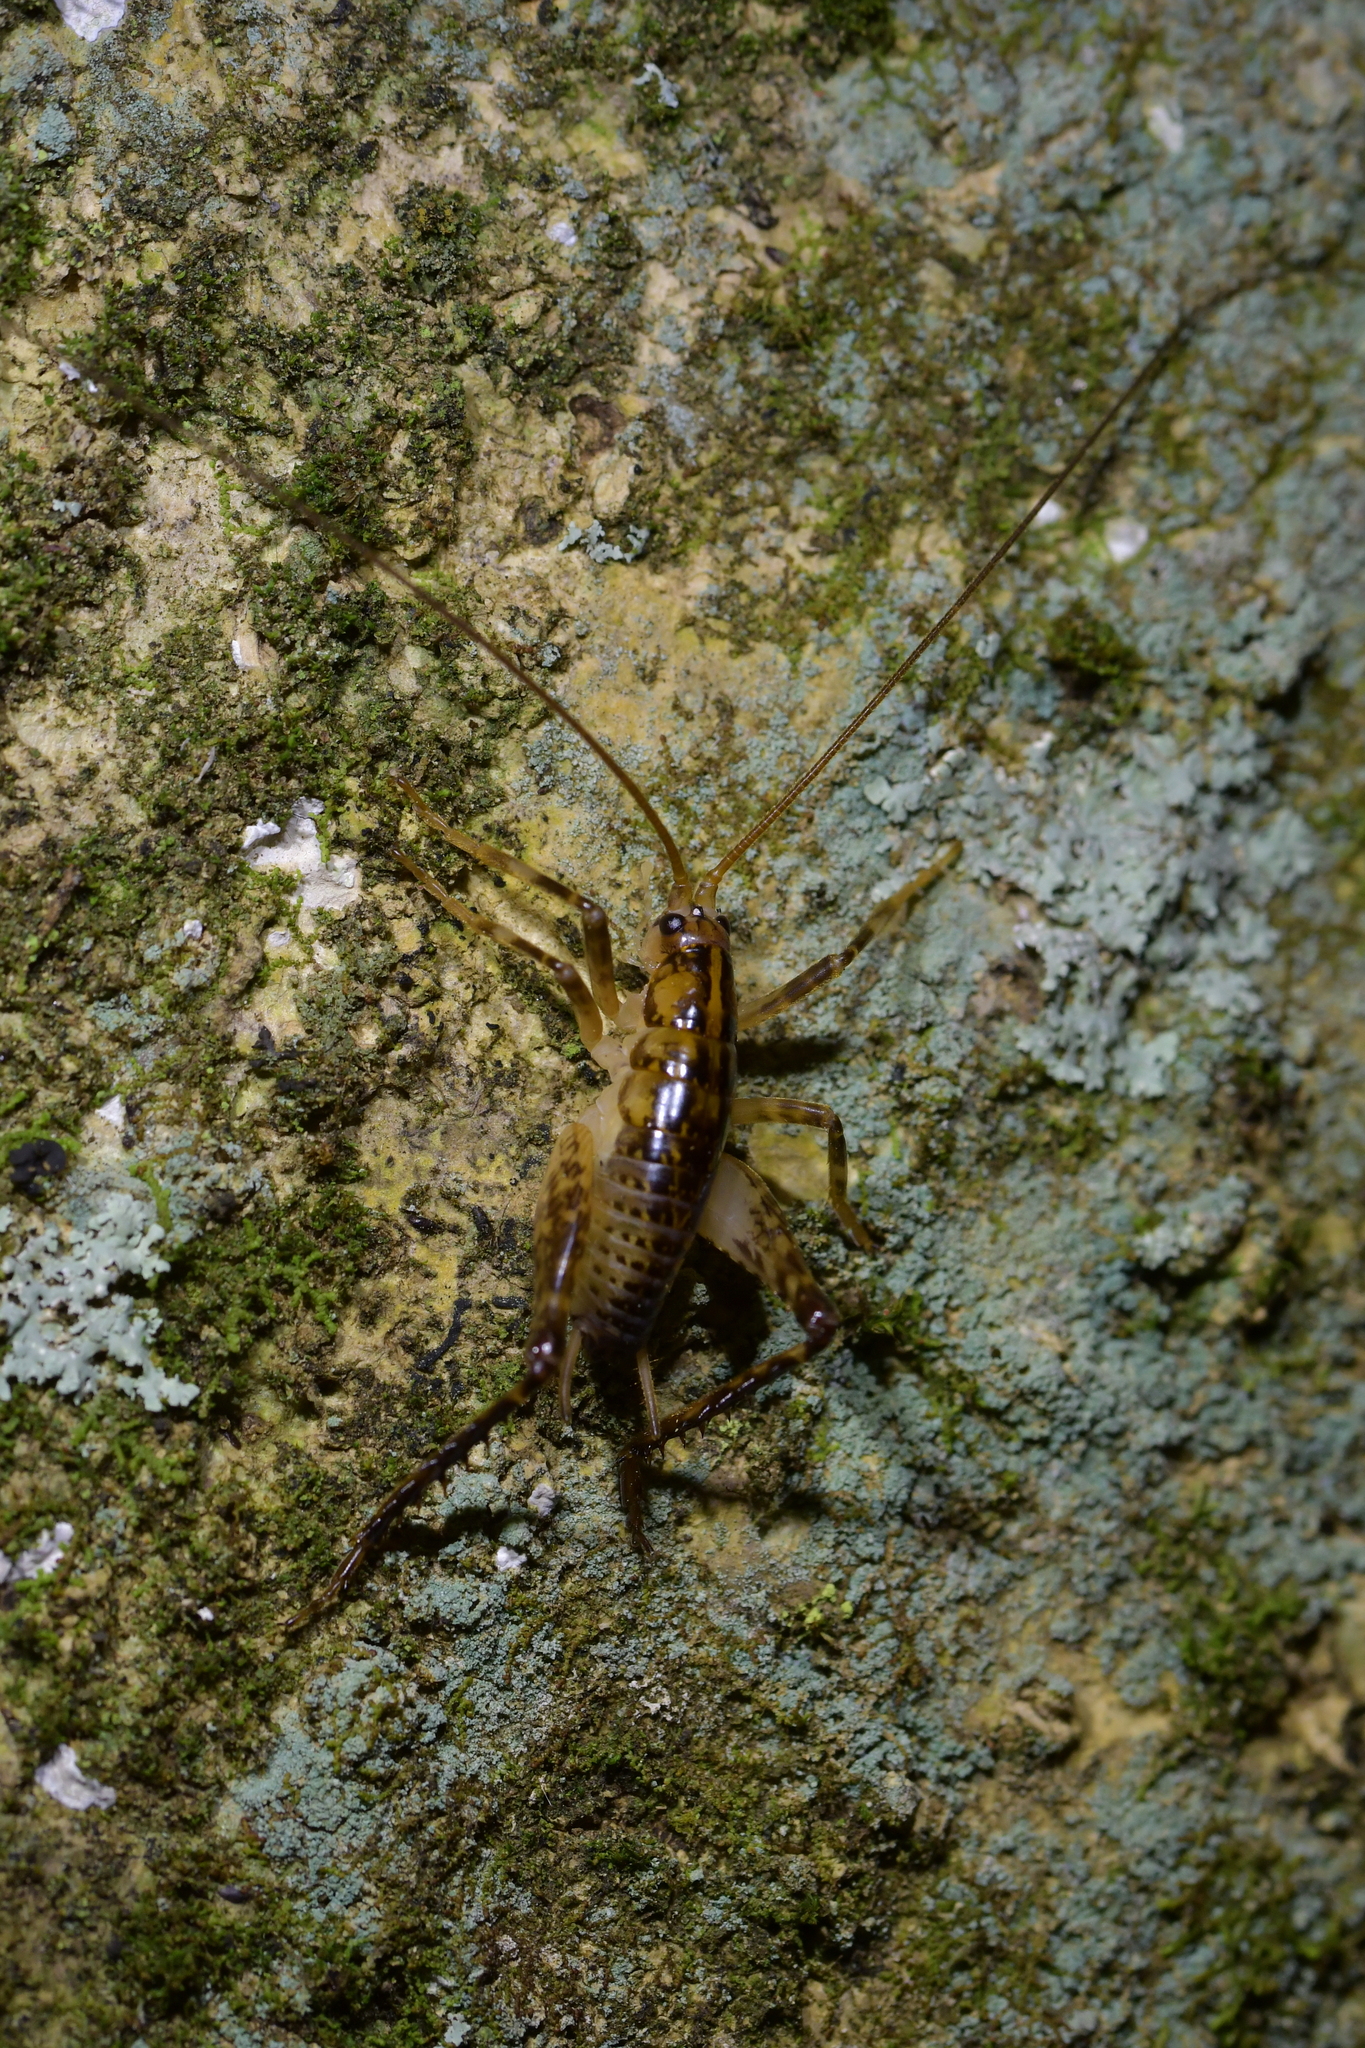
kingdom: Animalia
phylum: Arthropoda
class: Insecta
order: Orthoptera
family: Rhaphidophoridae
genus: Talitropsis
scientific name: Talitropsis sedilloti
